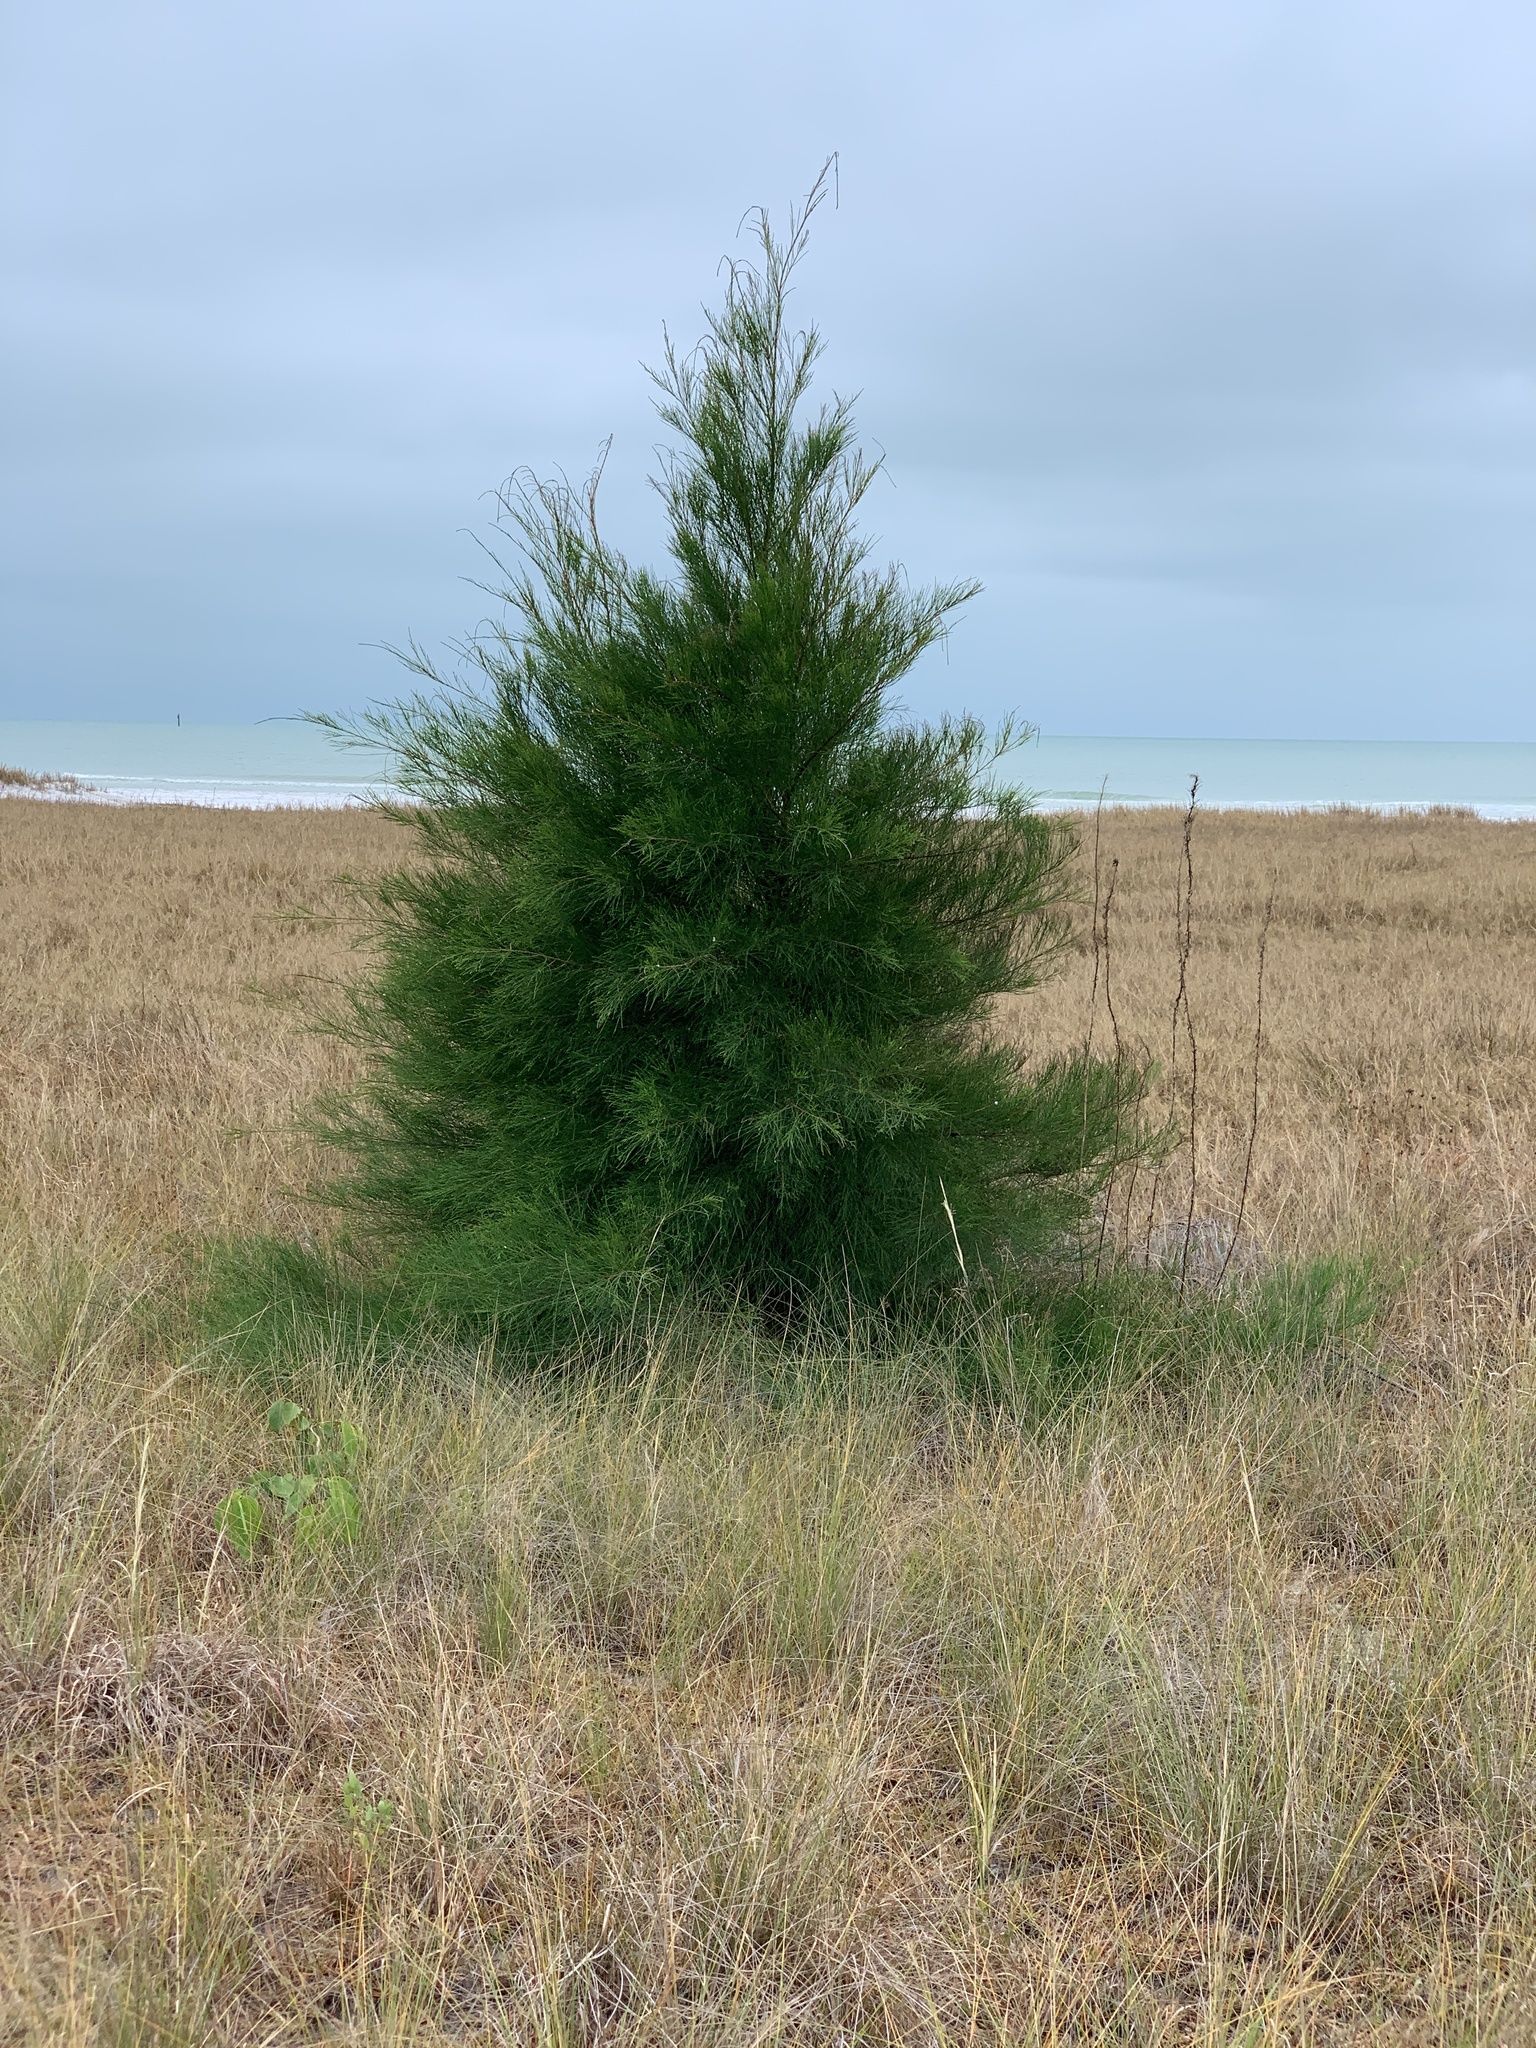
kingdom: Plantae
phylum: Tracheophyta
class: Magnoliopsida
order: Fagales
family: Casuarinaceae
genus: Casuarina
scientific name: Casuarina equisetifolia
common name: Beach sheoak
